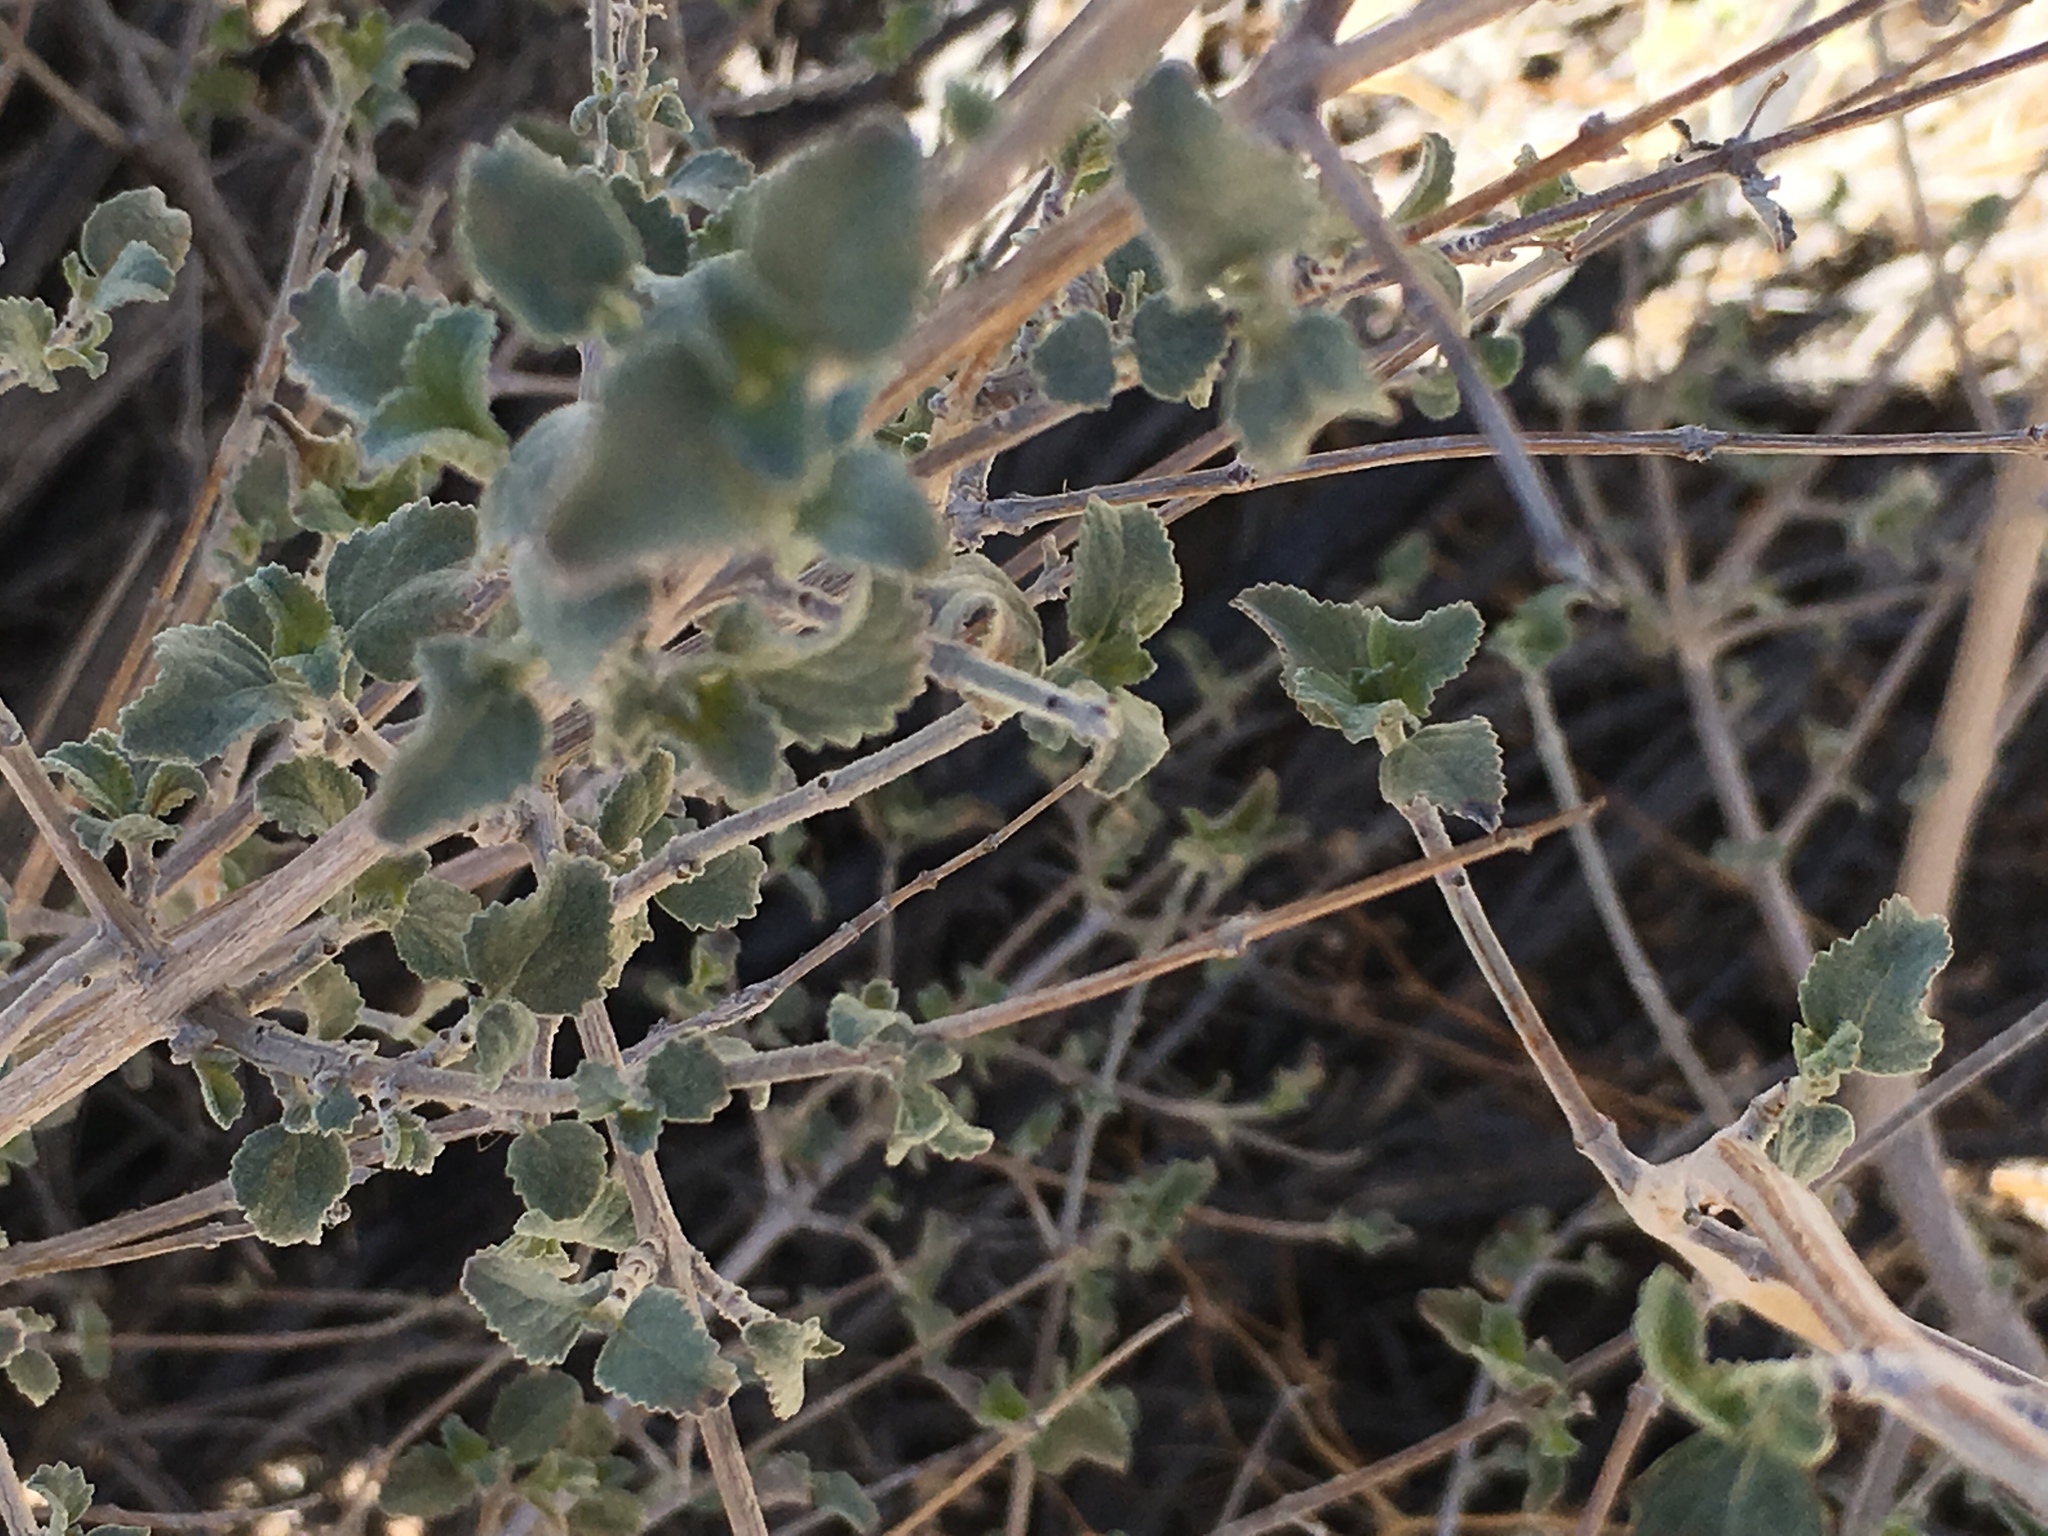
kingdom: Plantae
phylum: Tracheophyta
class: Magnoliopsida
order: Lamiales
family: Lamiaceae
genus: Condea
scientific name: Condea emoryi
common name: Chia
